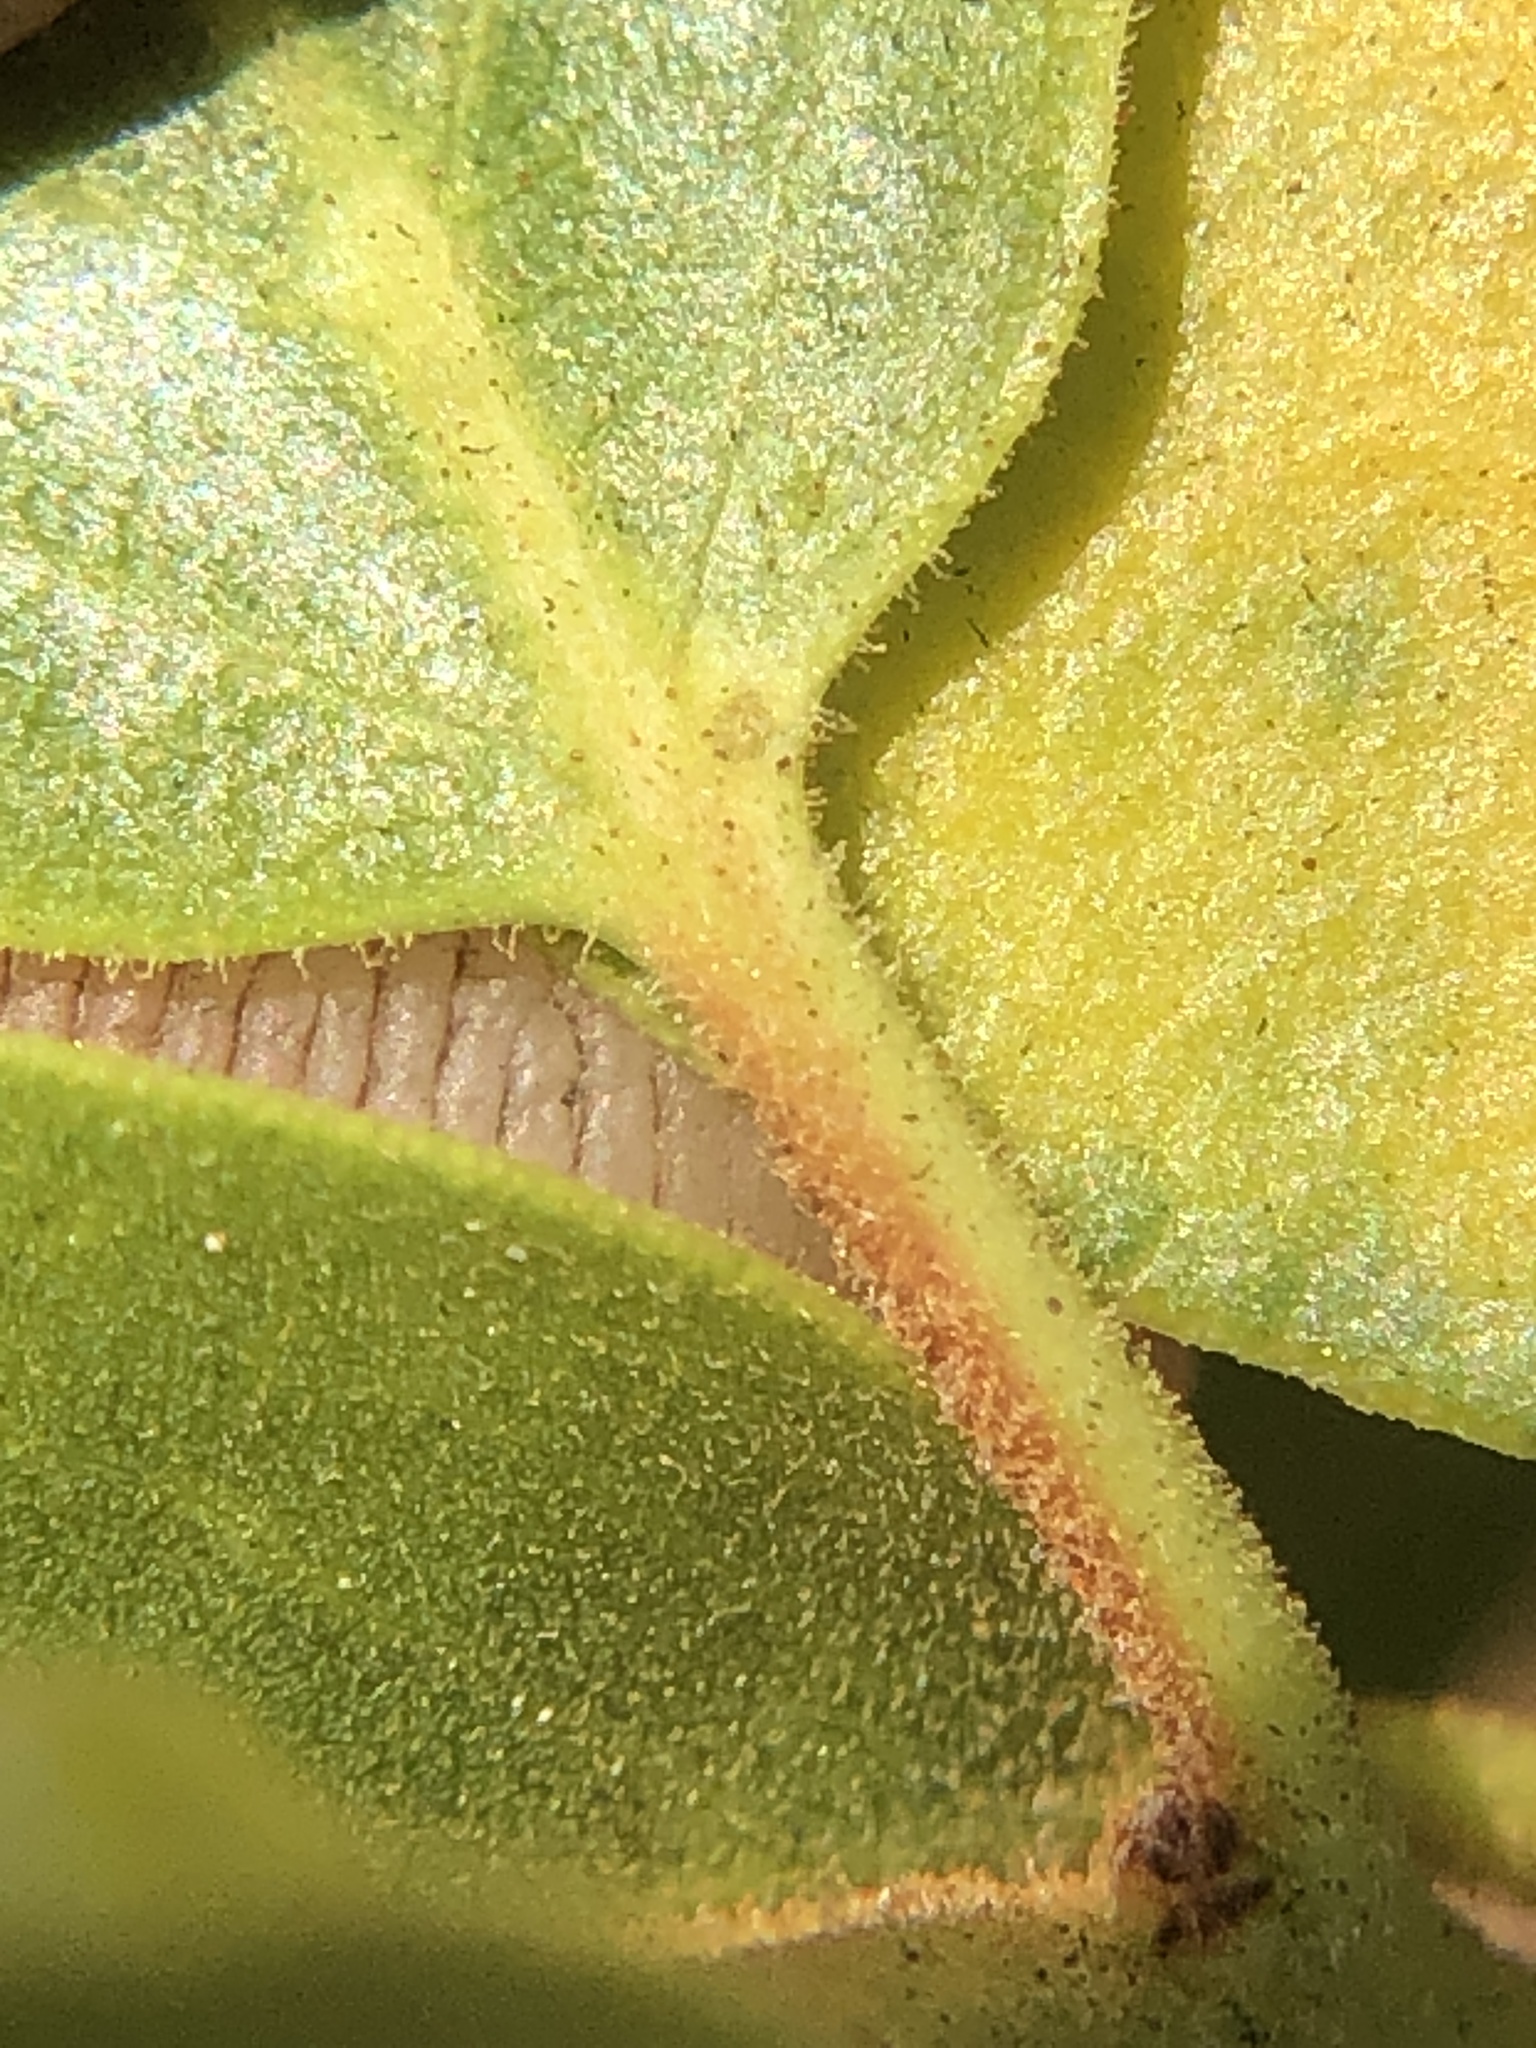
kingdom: Plantae
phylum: Tracheophyta
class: Magnoliopsida
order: Ericales
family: Ericaceae
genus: Arctostaphylos
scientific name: Arctostaphylos patula
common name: Green-leaf manzanita
